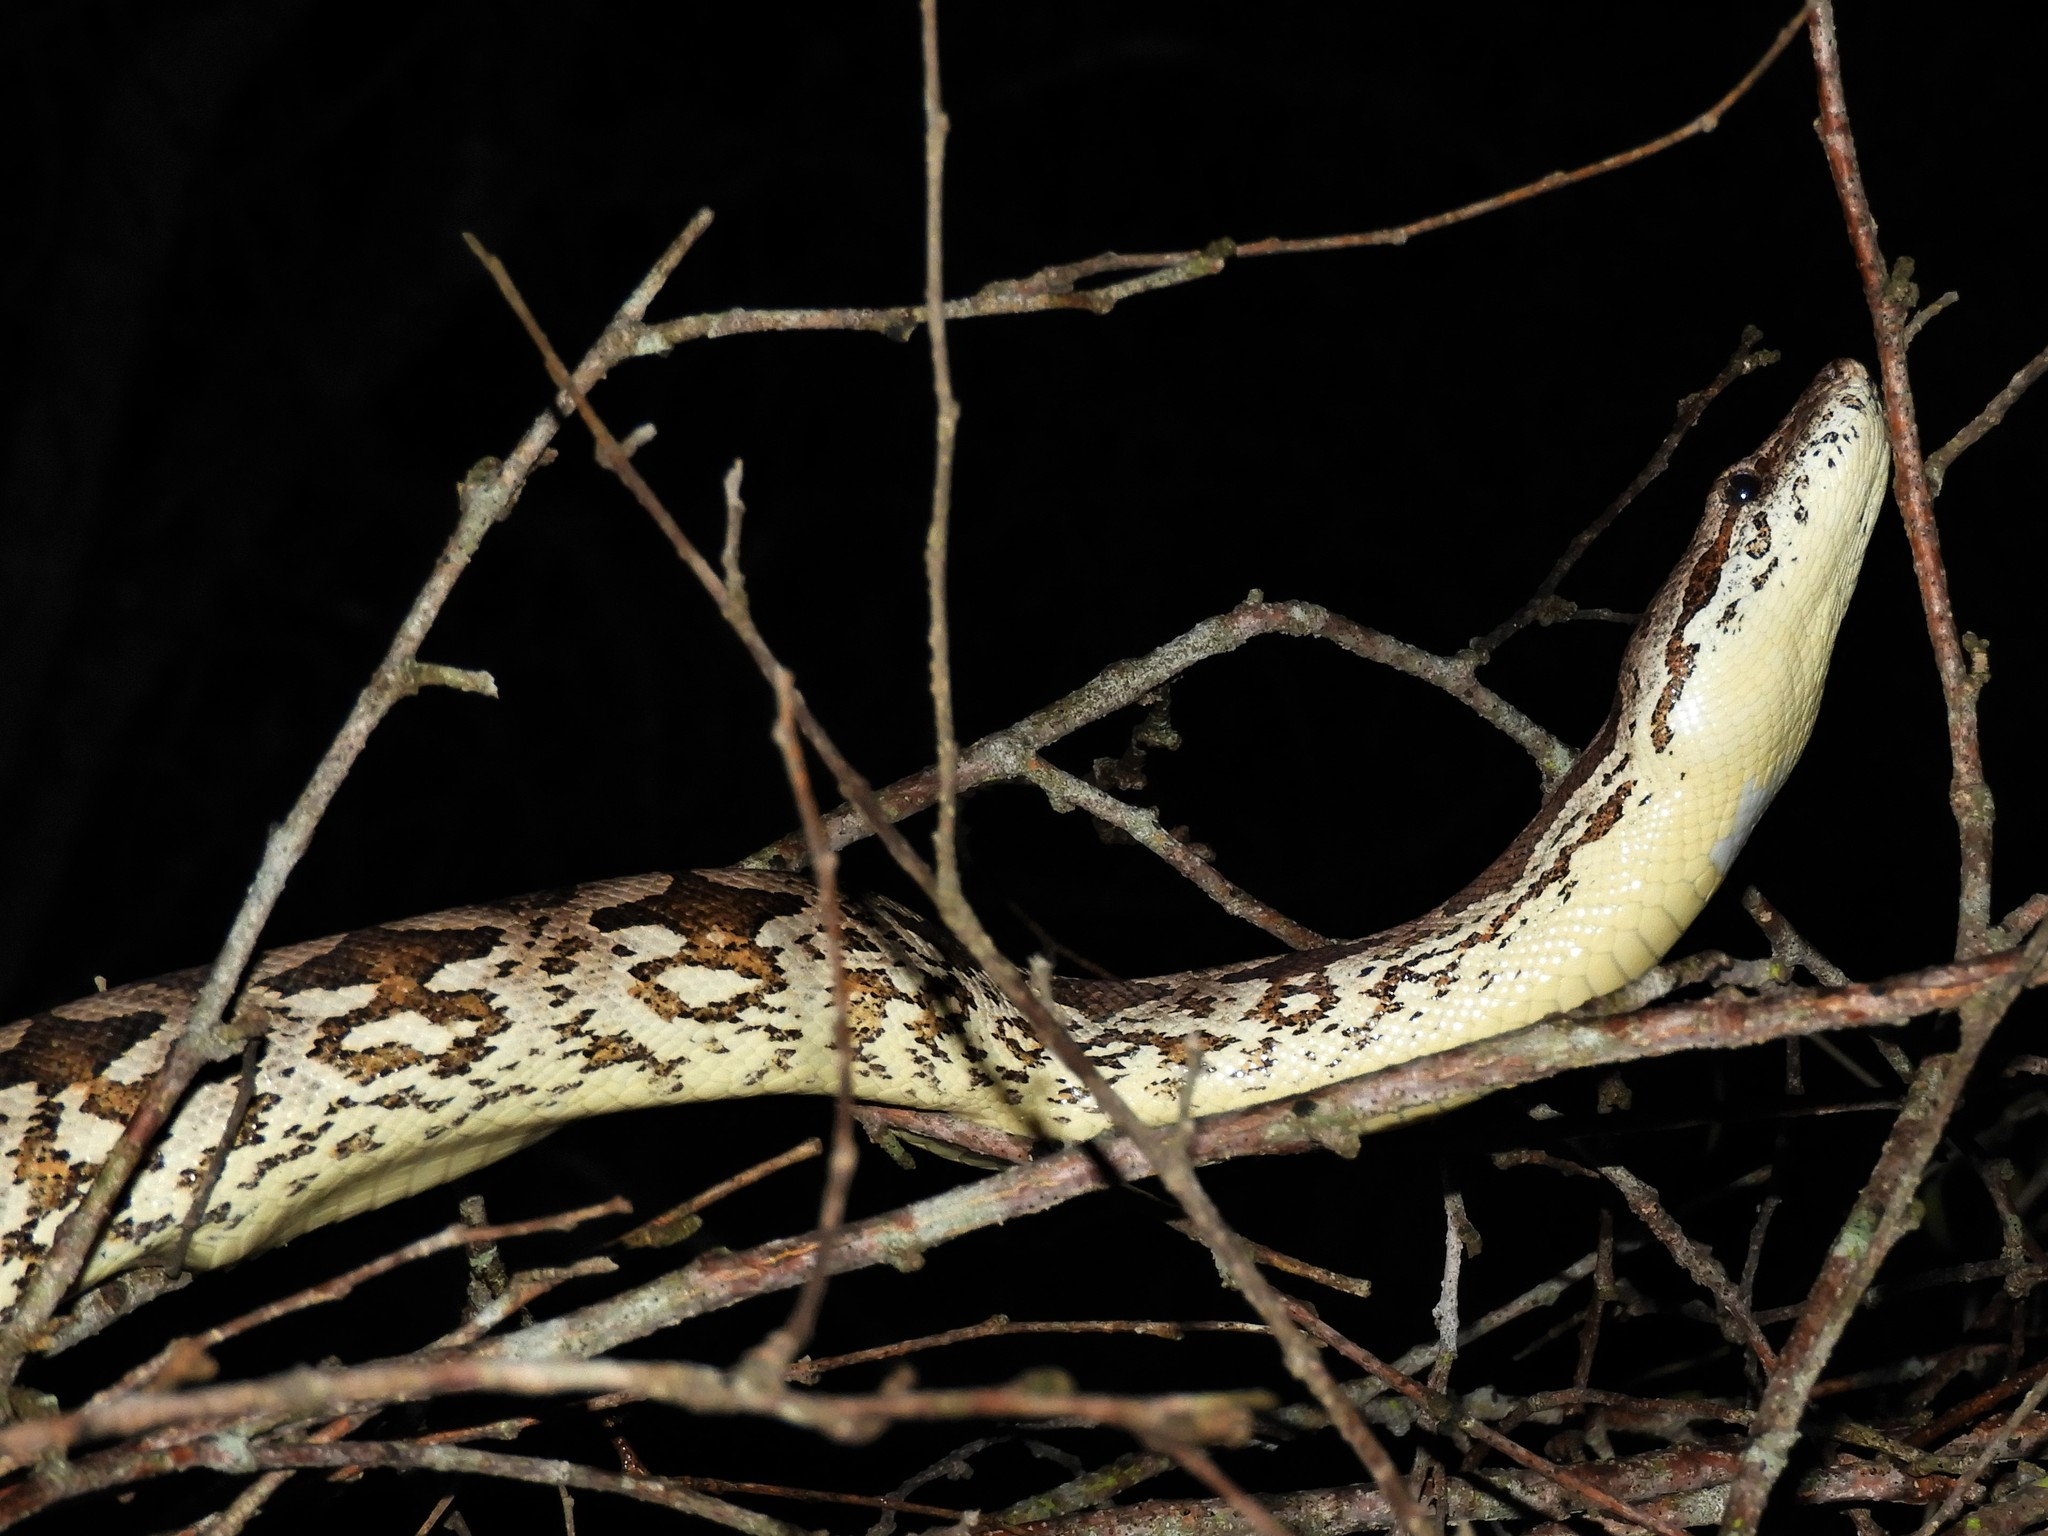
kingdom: Animalia
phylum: Chordata
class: Squamata
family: Boidae
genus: Acrantophis
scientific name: Acrantophis dumerili
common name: Dumeril's boa
